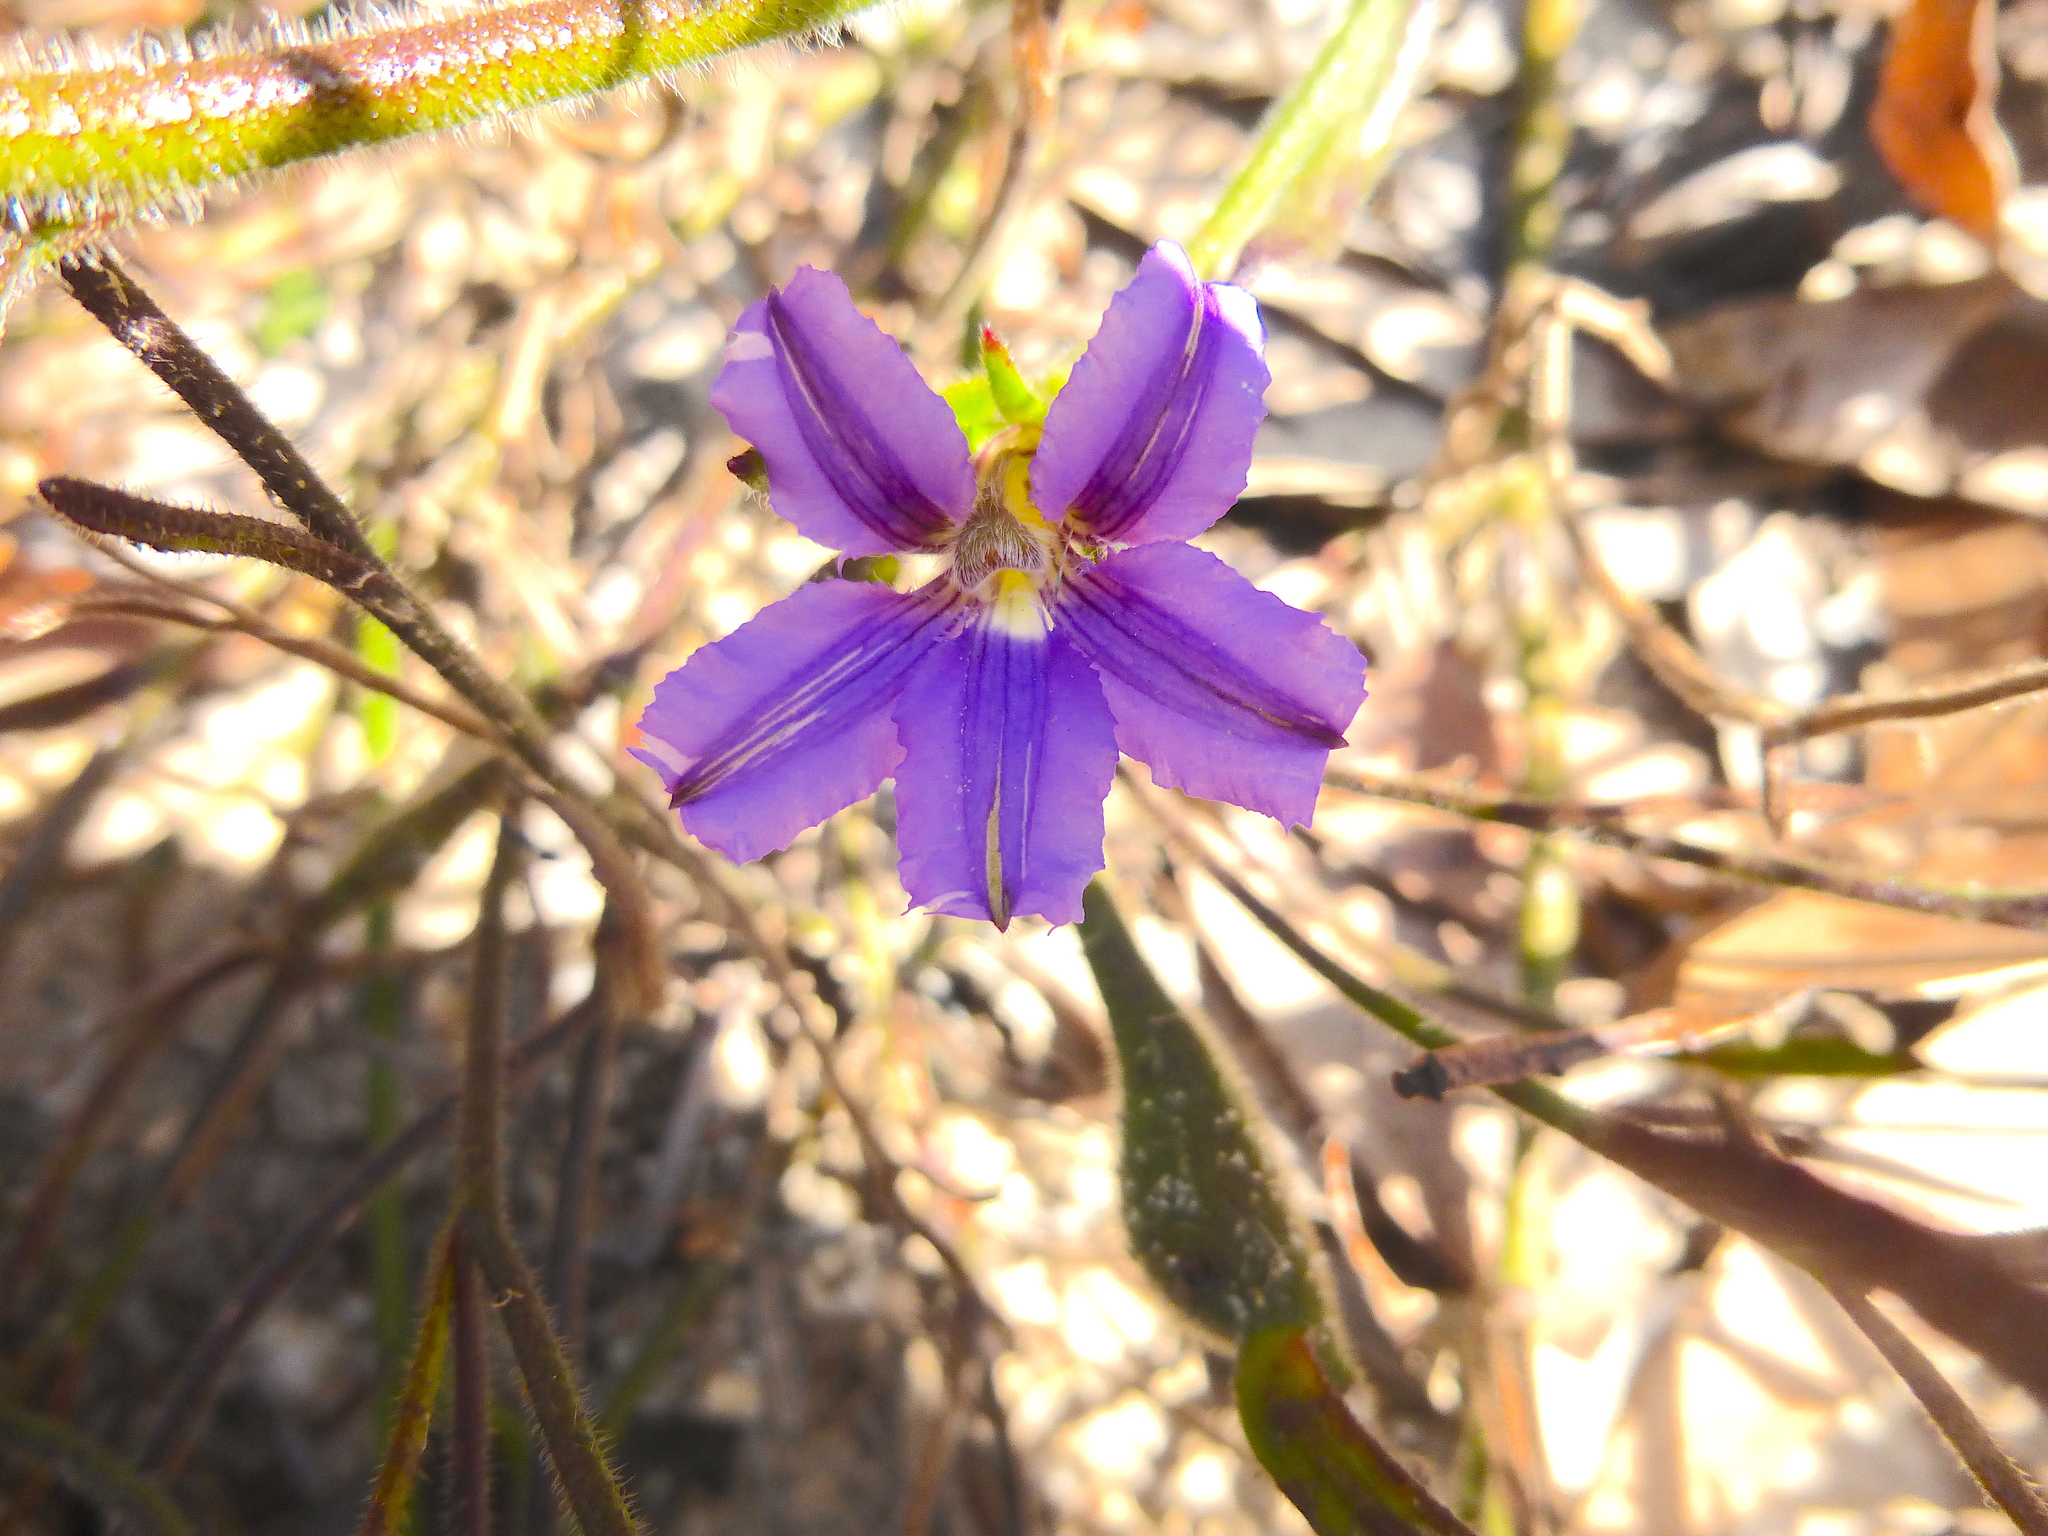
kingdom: Plantae
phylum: Tracheophyta
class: Magnoliopsida
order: Asterales
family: Goodeniaceae
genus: Scaevola
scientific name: Scaevola ramosissima
